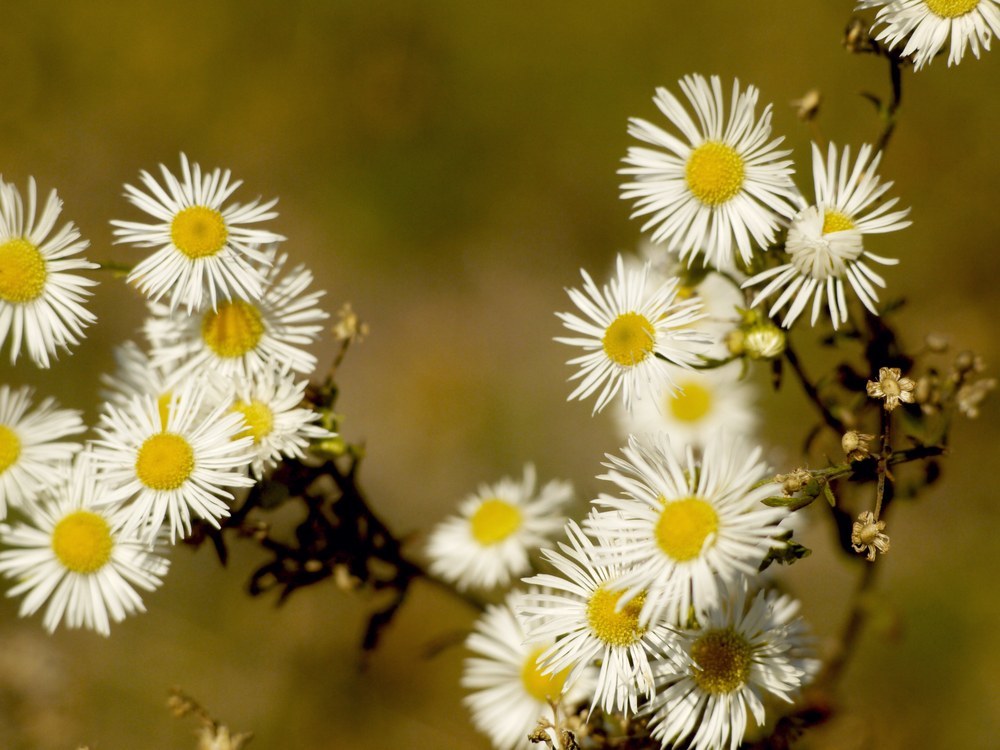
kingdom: Plantae
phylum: Tracheophyta
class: Magnoliopsida
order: Asterales
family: Asteraceae
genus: Erigeron
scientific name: Erigeron annuus
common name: Tall fleabane
